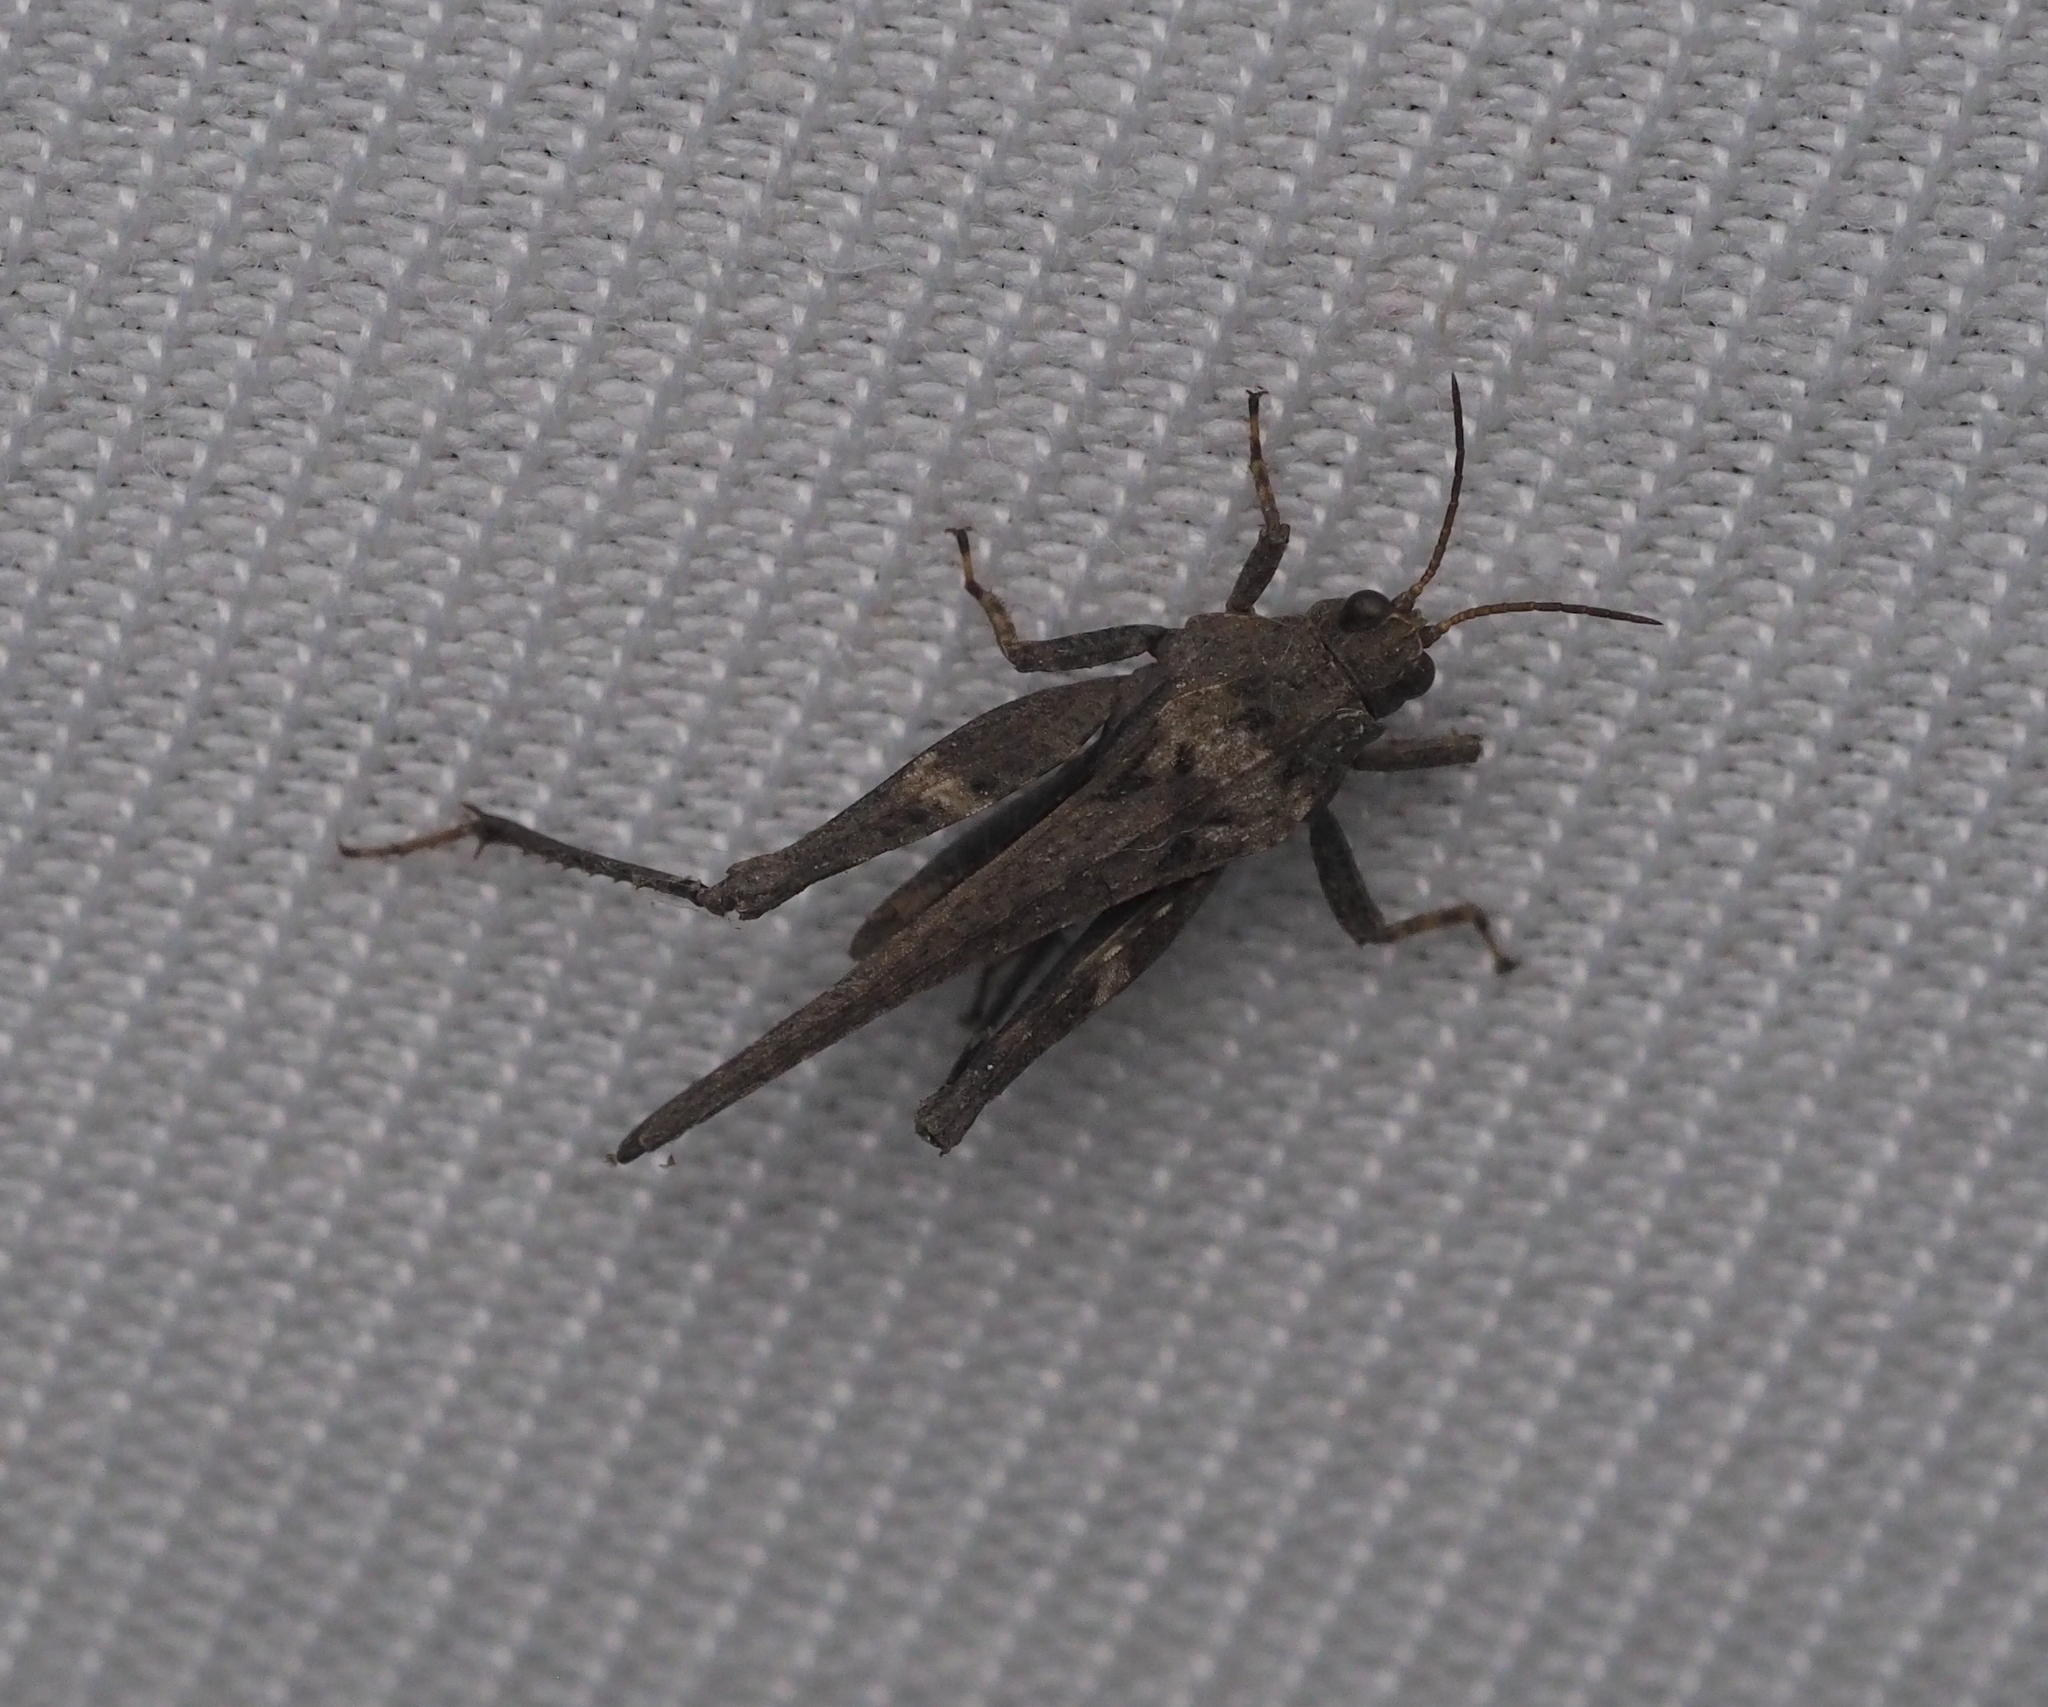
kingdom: Animalia
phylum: Arthropoda
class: Insecta
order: Orthoptera
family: Tetrigidae
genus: Tetrix
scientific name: Tetrix subulata
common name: Slender ground-hopper
